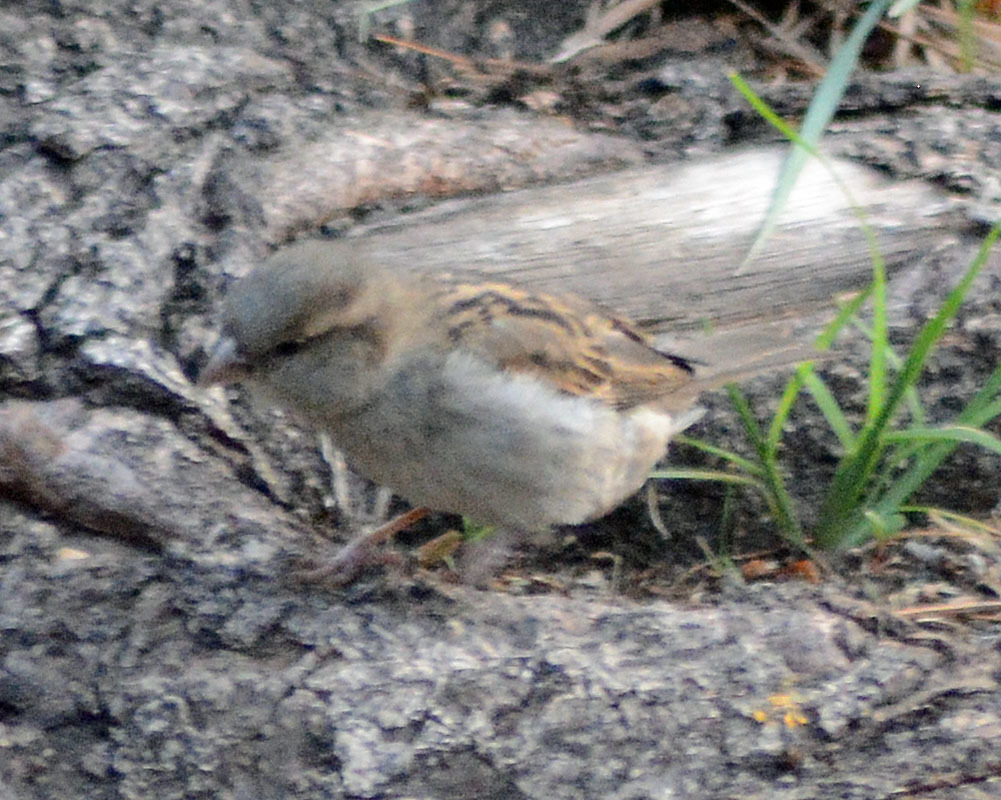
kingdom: Animalia
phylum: Chordata
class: Aves
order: Passeriformes
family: Passeridae
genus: Passer
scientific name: Passer domesticus
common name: House sparrow
